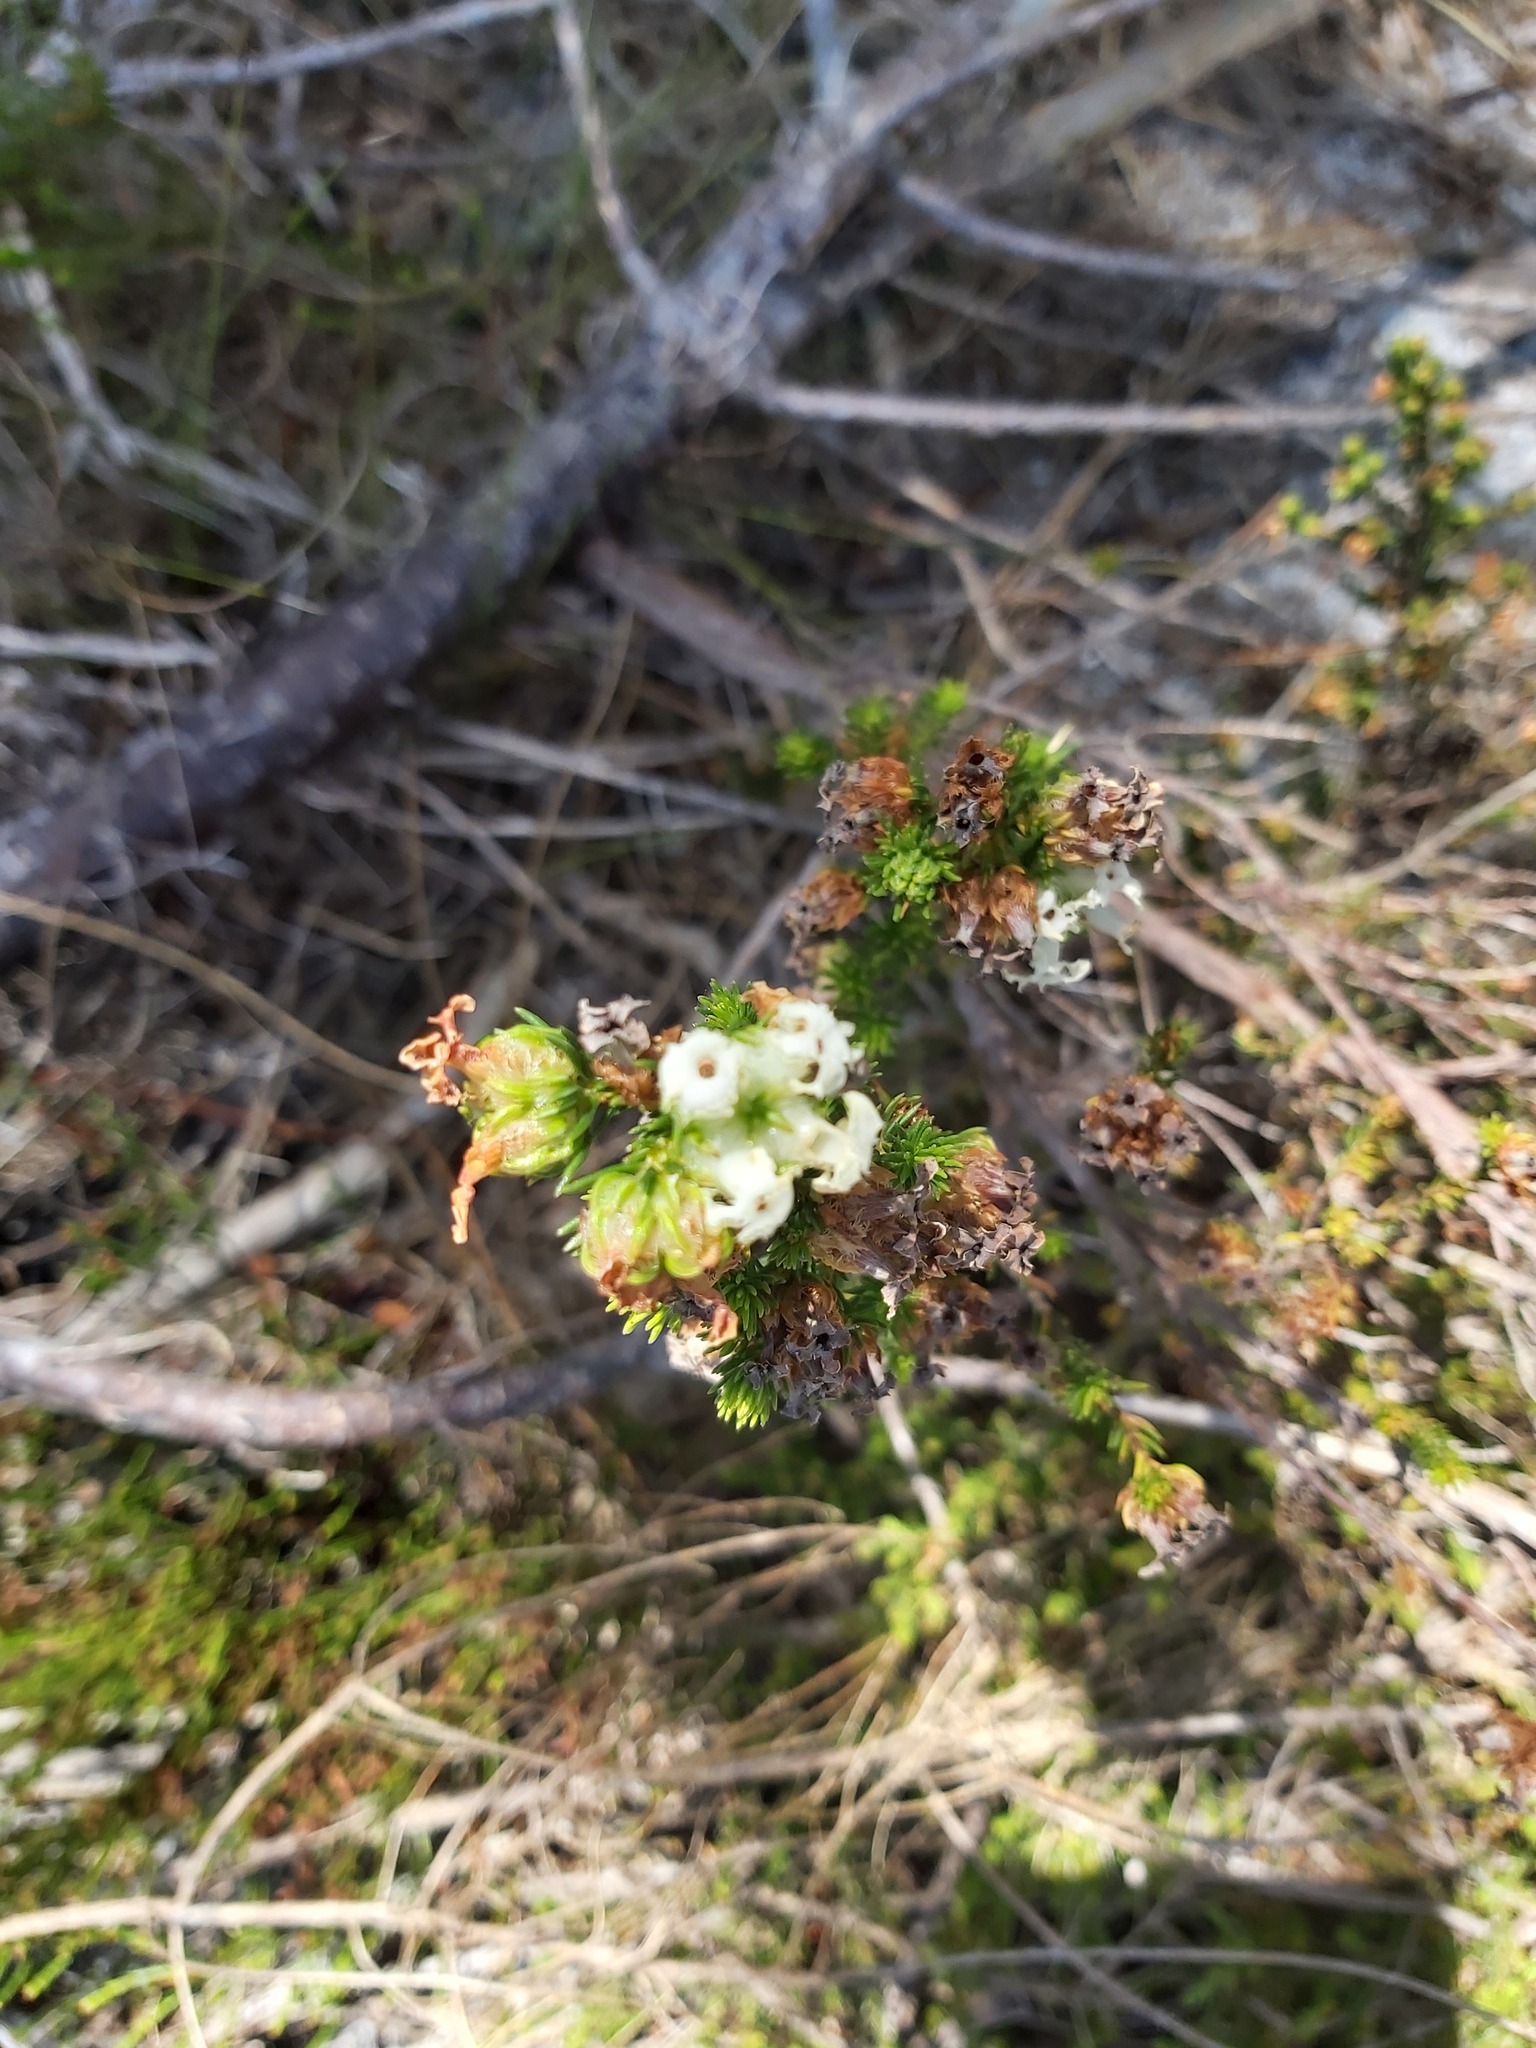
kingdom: Plantae
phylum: Tracheophyta
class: Magnoliopsida
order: Ericales
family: Ericaceae
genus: Erica
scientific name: Erica denticulata
